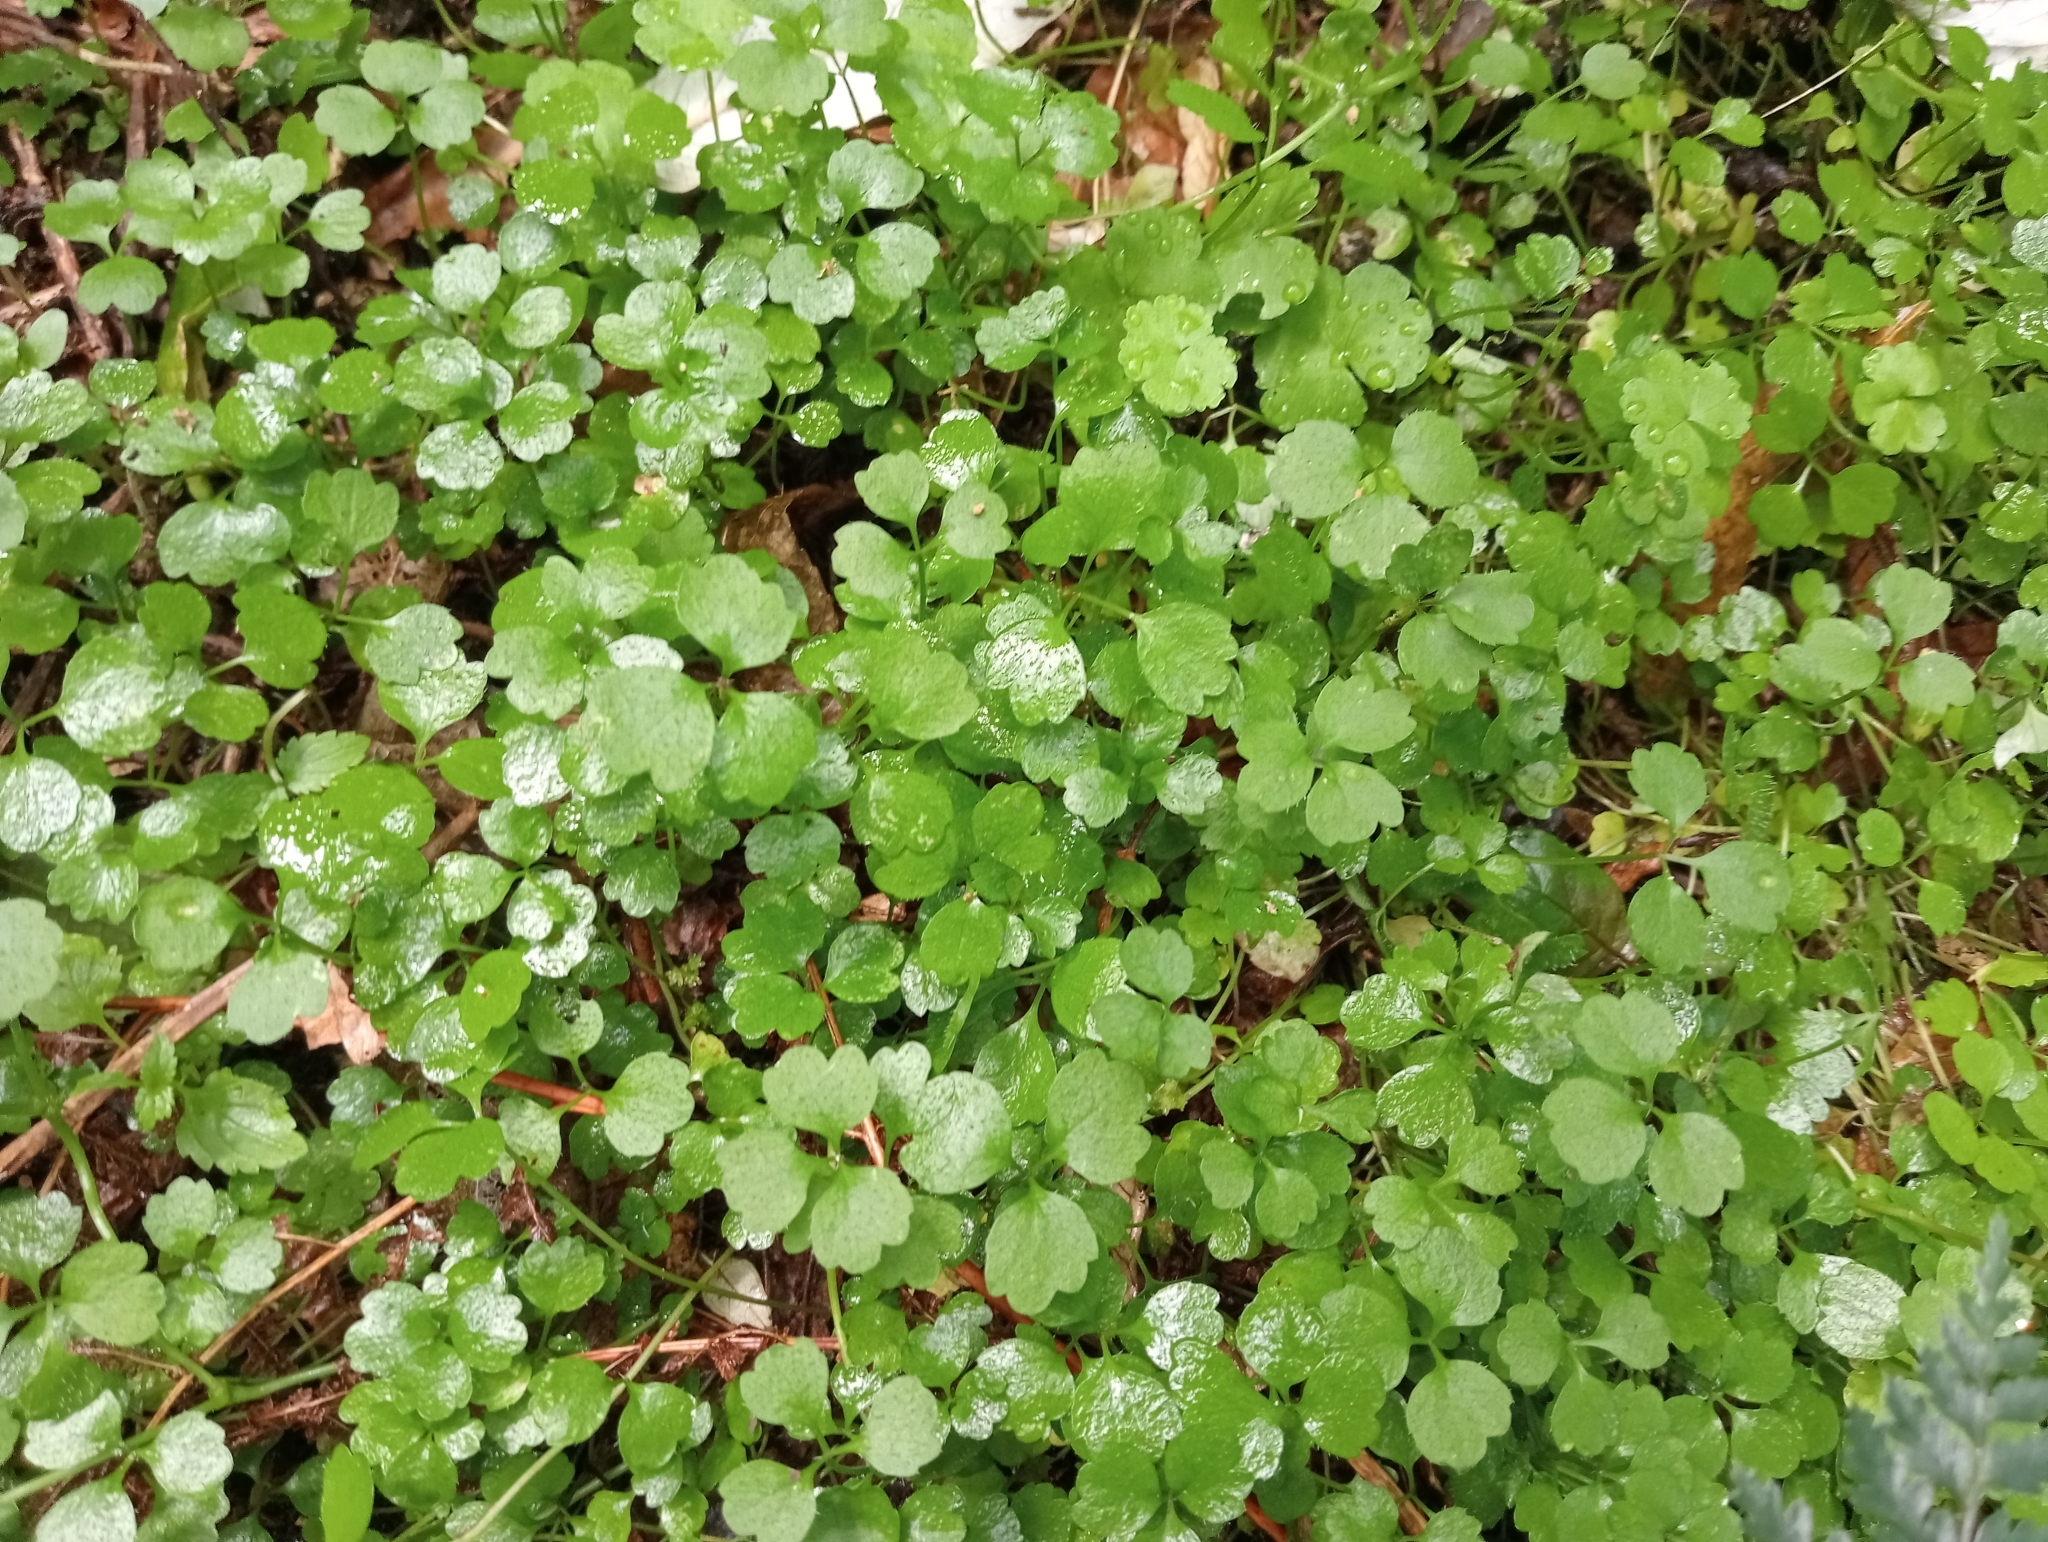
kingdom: Plantae
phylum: Tracheophyta
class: Magnoliopsida
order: Apiales
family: Apiaceae
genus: Azorella
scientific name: Azorella hookeri
